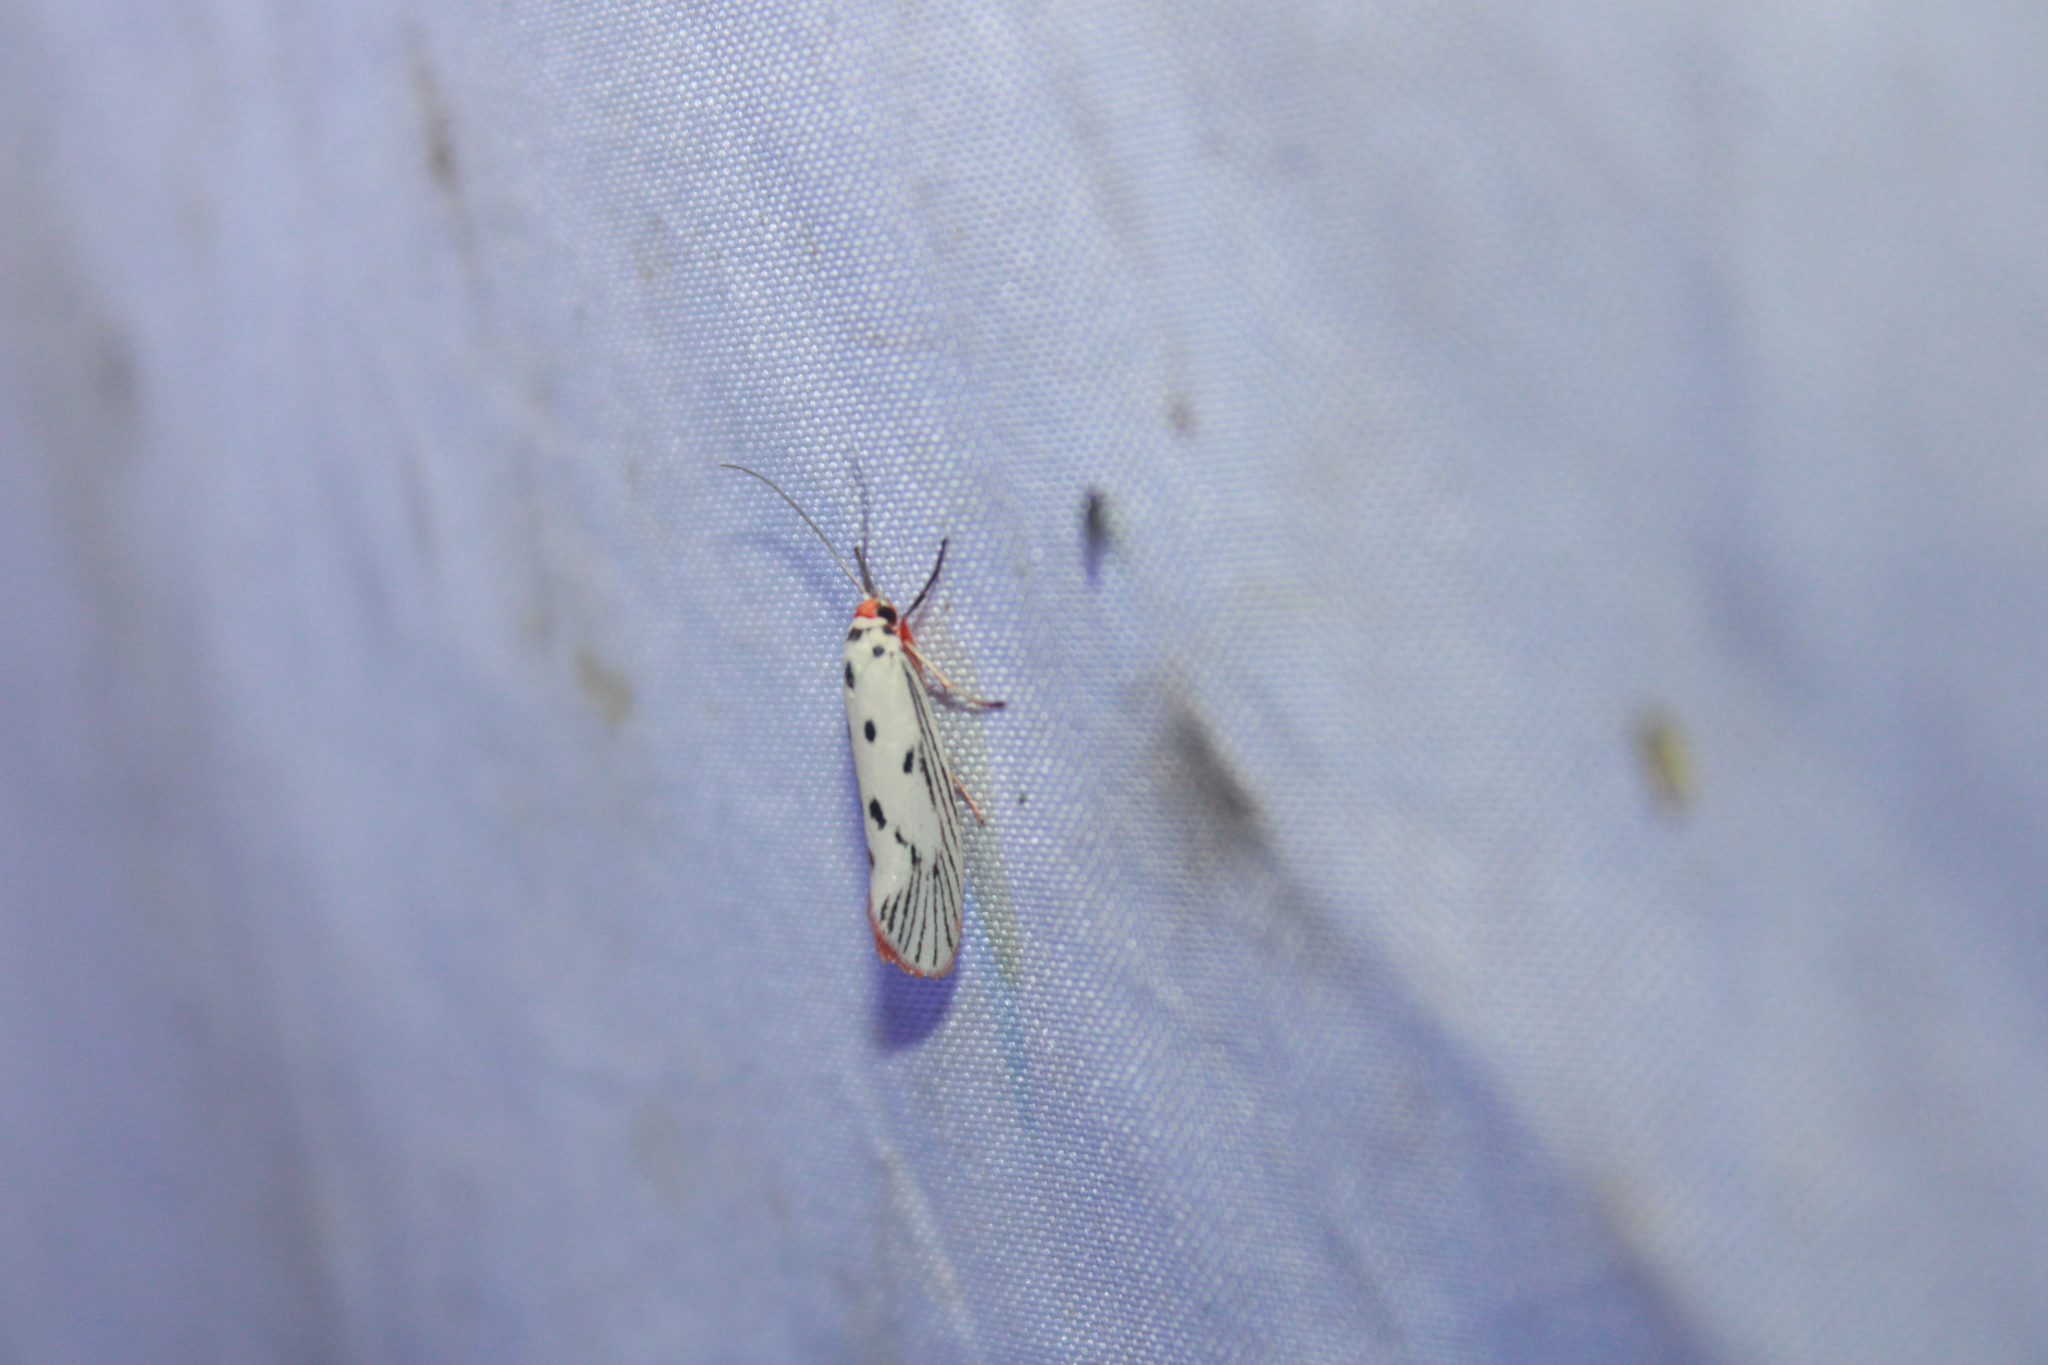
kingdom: Animalia
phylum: Arthropoda
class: Insecta
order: Lepidoptera
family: Lacturidae
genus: Lactura
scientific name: Lactura
